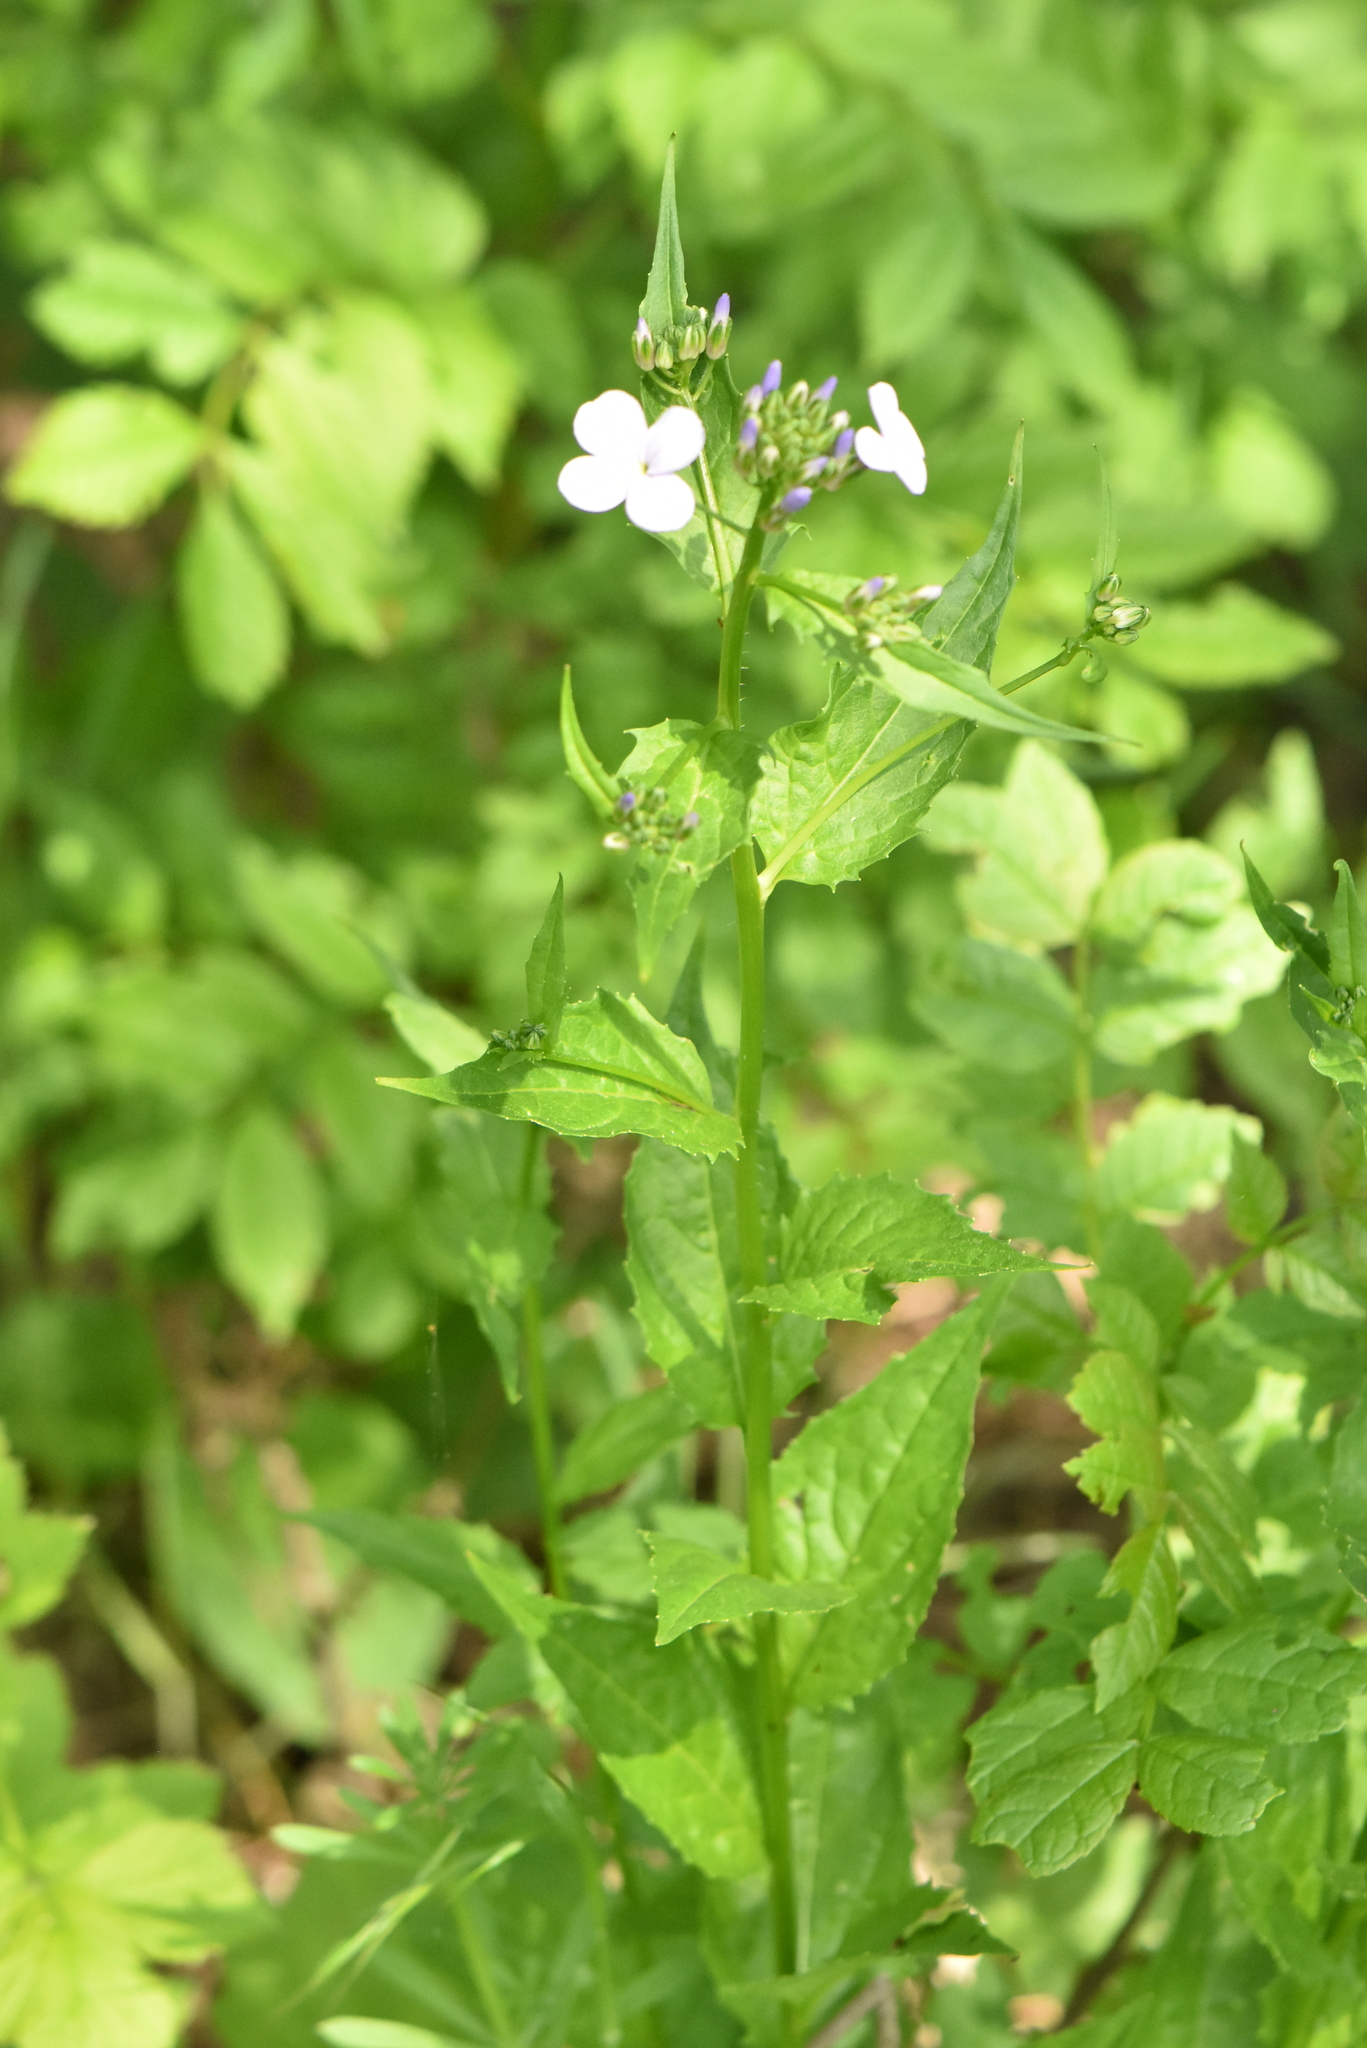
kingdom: Plantae
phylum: Tracheophyta
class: Magnoliopsida
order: Brassicales
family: Brassicaceae
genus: Hesperis
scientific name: Hesperis matronalis
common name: Dame's-violet
